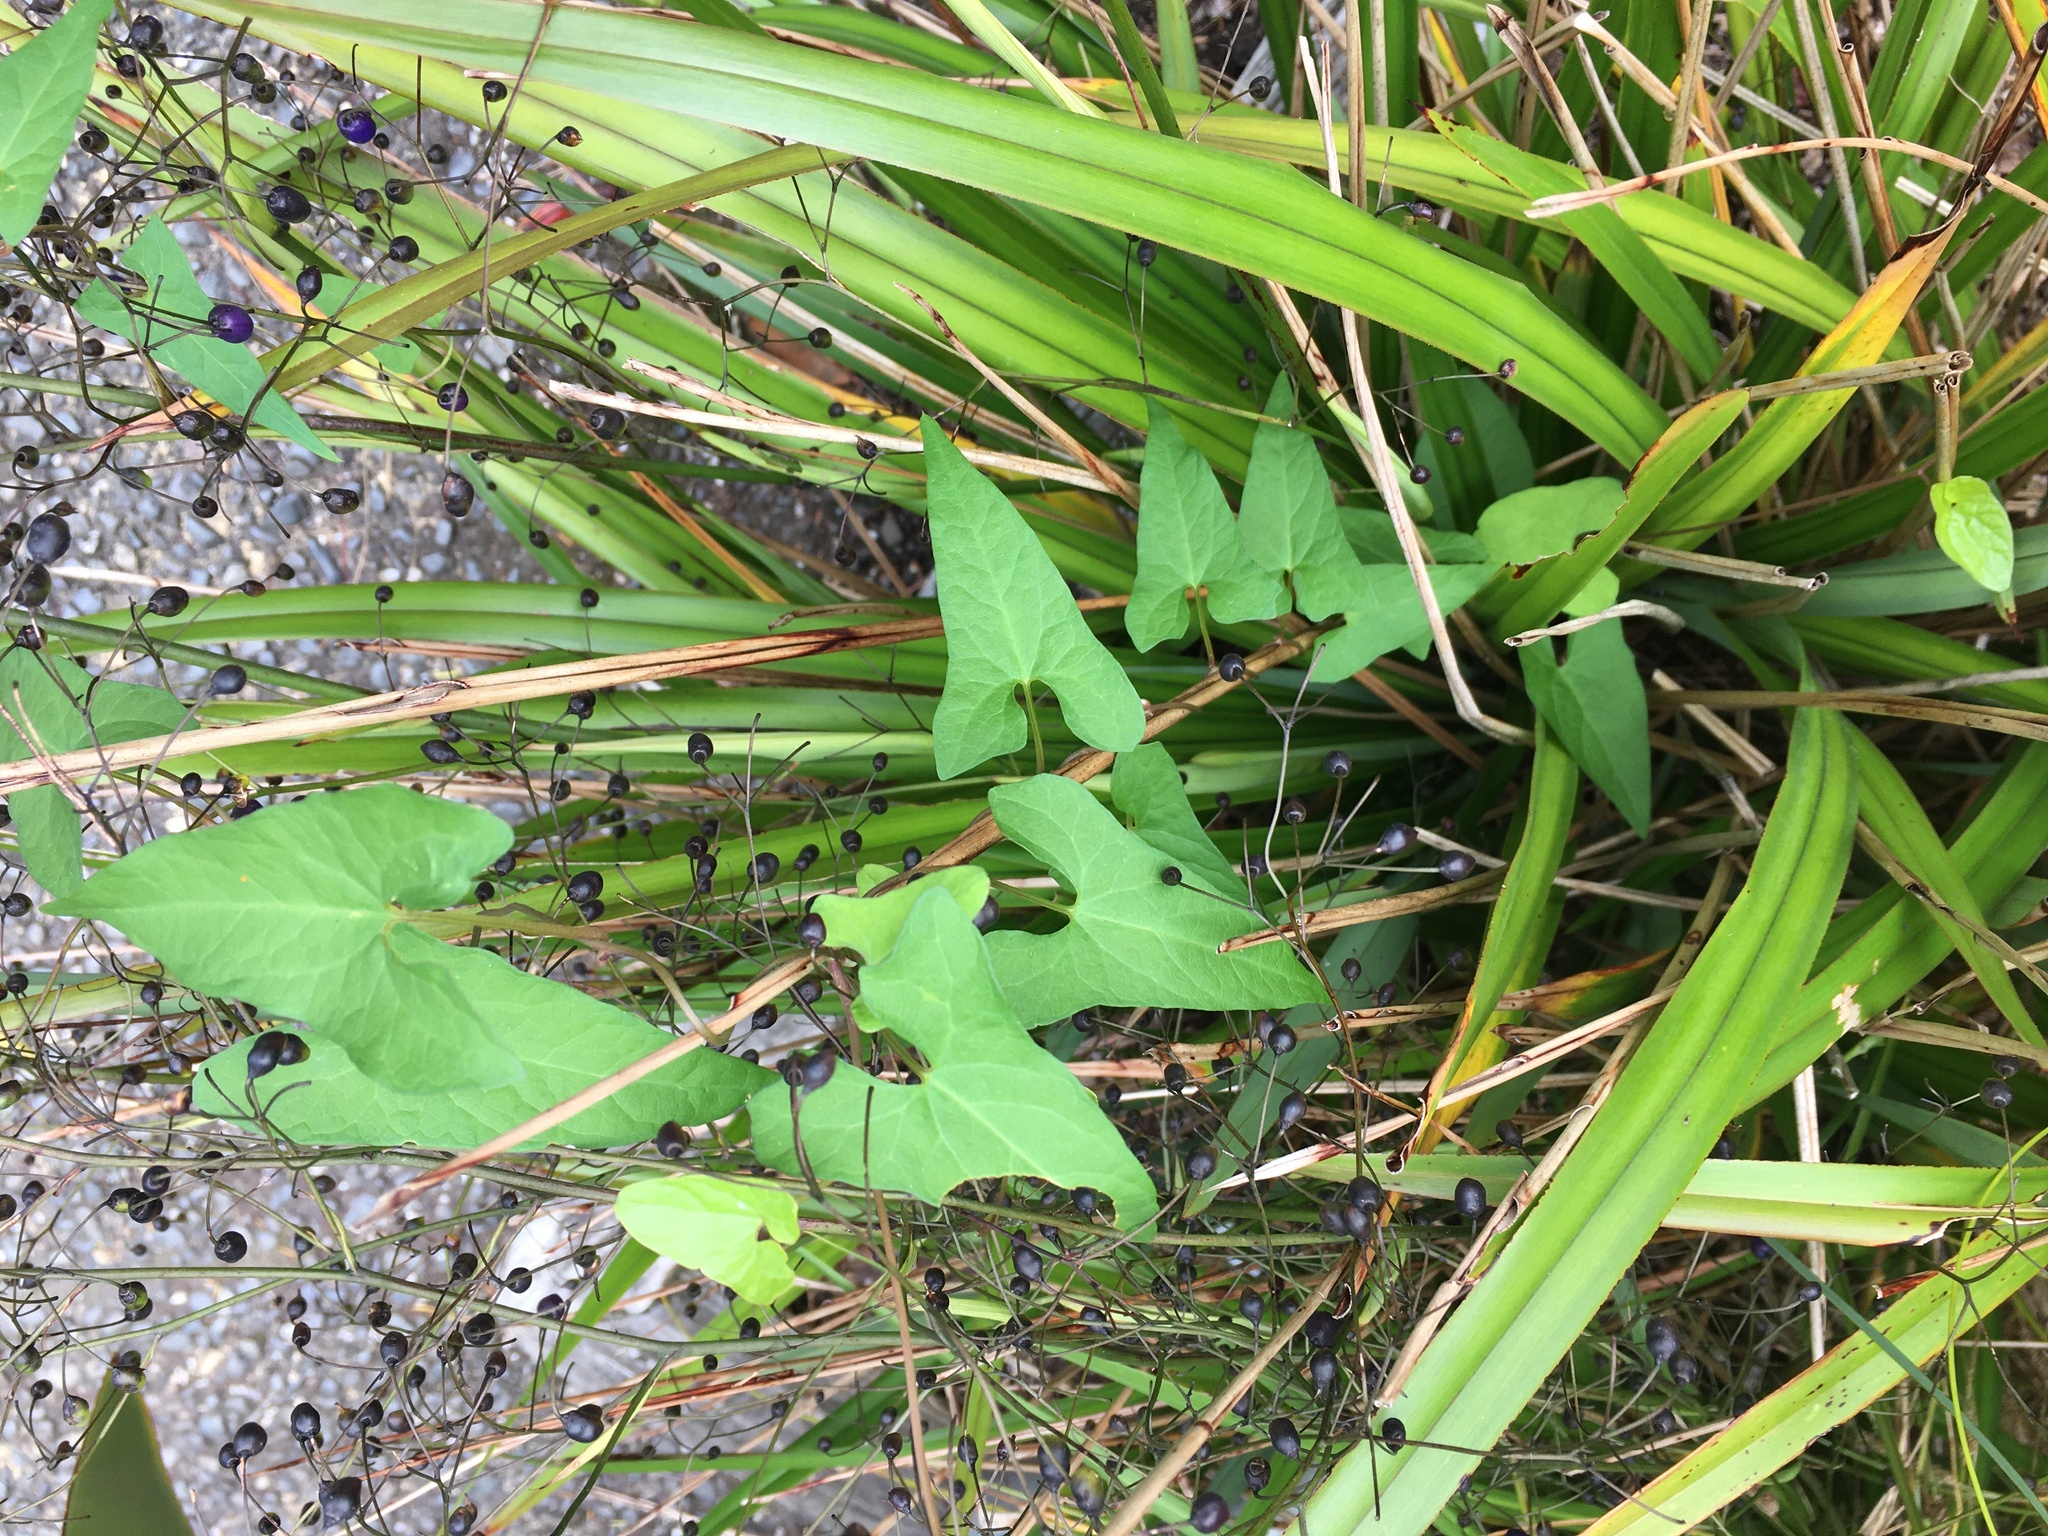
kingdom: Plantae
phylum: Tracheophyta
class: Magnoliopsida
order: Solanales
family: Convolvulaceae
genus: Calystegia
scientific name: Calystegia silvatica
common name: Large bindweed
